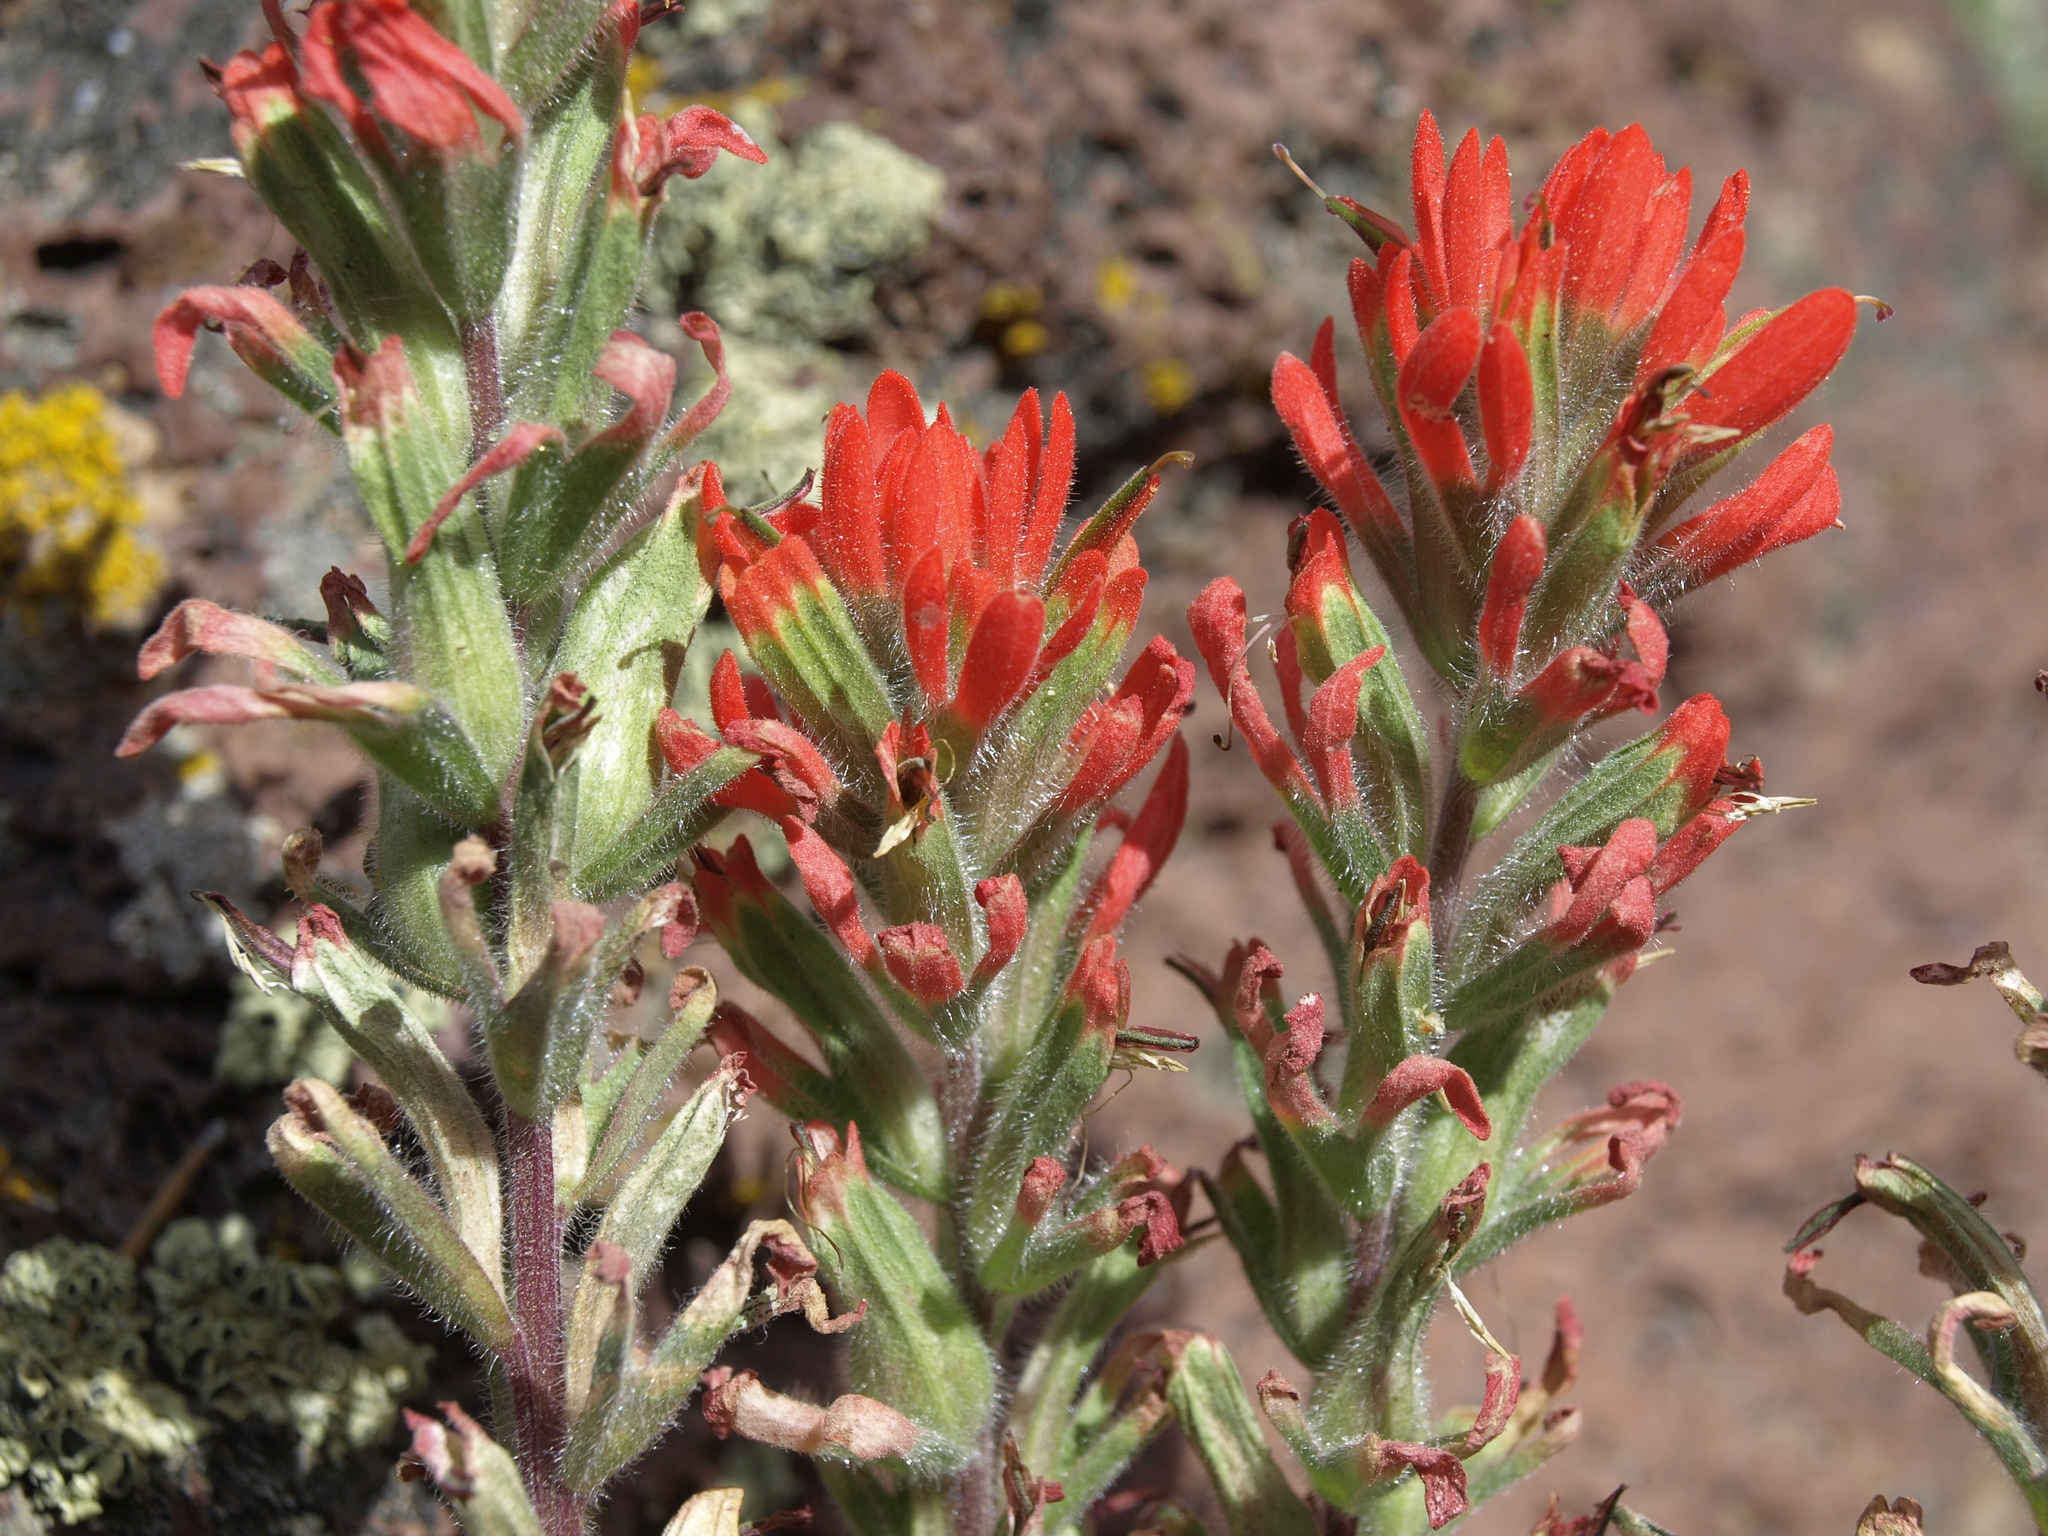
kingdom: Plantae
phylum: Tracheophyta
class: Magnoliopsida
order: Lamiales
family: Orobanchaceae
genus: Castilleja
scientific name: Castilleja chromosa
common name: Desert paintbrush
